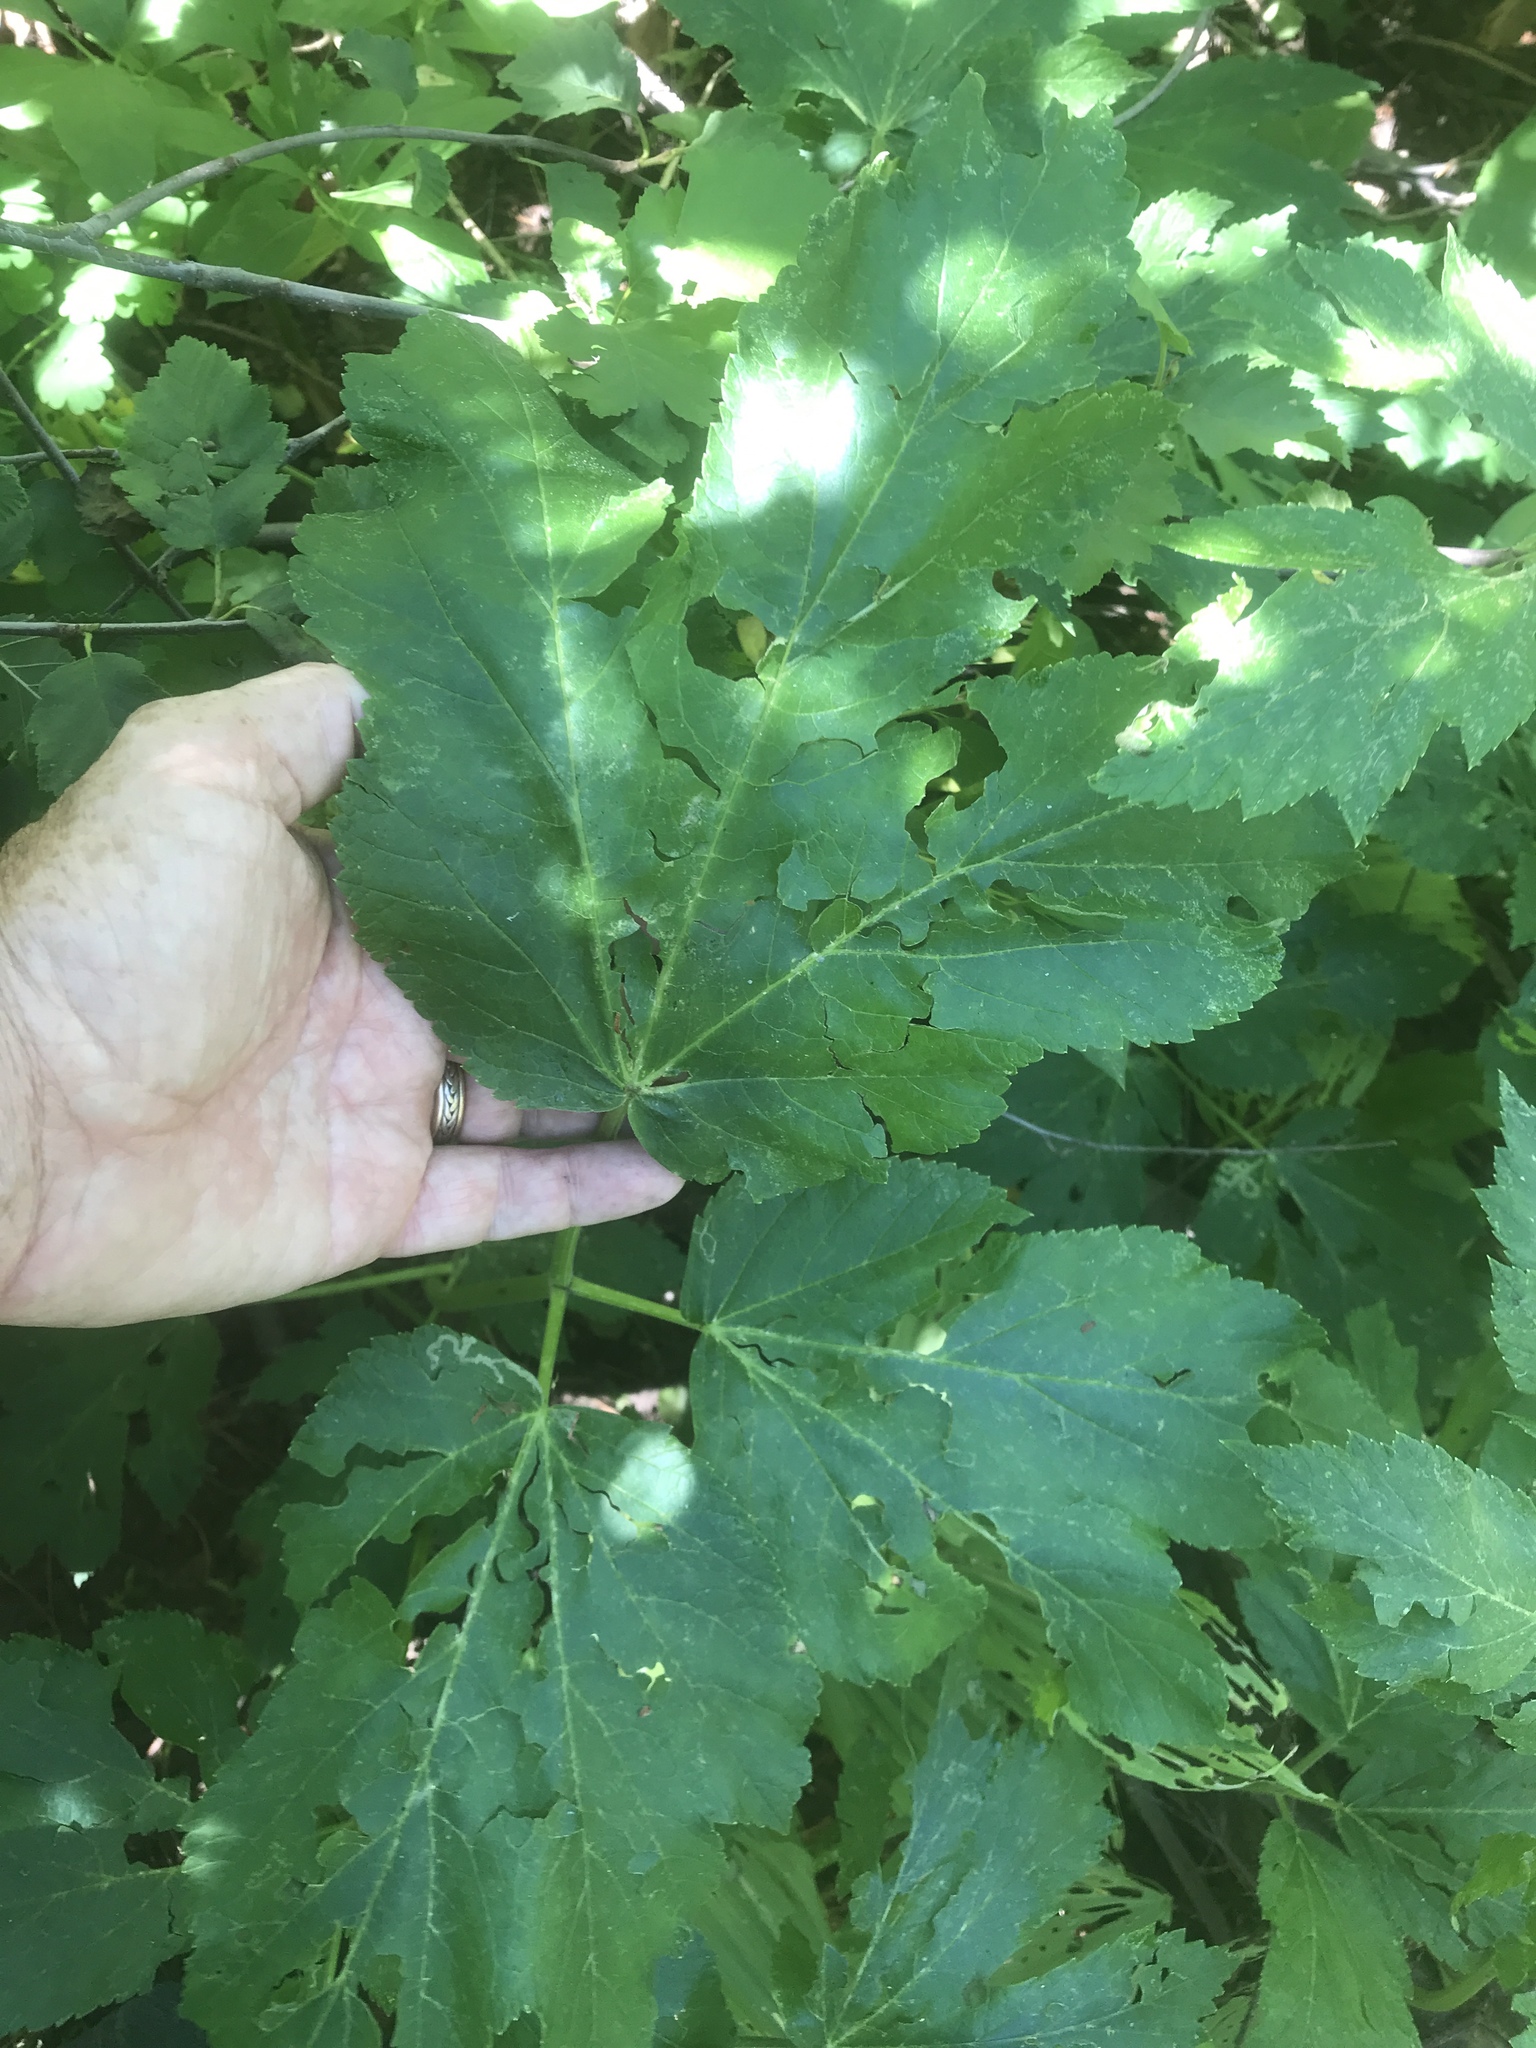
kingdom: Plantae
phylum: Tracheophyta
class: Magnoliopsida
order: Apiales
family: Apiaceae
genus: Heracleum
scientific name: Heracleum maximum
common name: American cow parsnip
